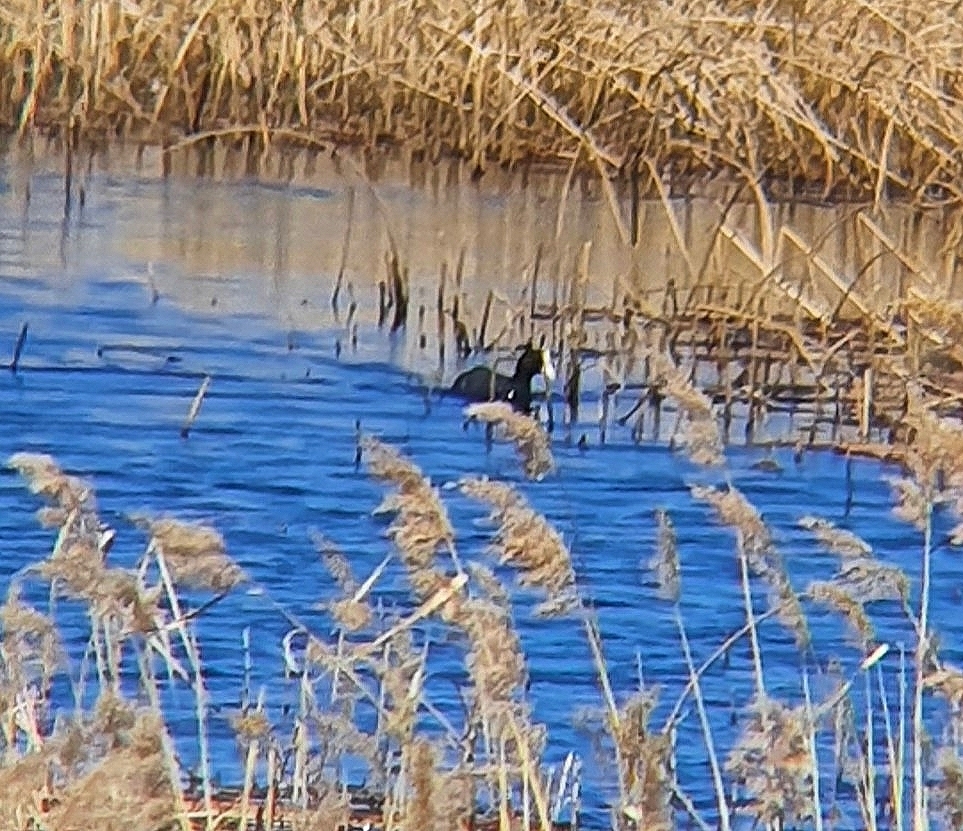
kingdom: Animalia
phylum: Chordata
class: Aves
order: Gruiformes
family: Rallidae
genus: Fulica
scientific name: Fulica atra
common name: Eurasian coot
